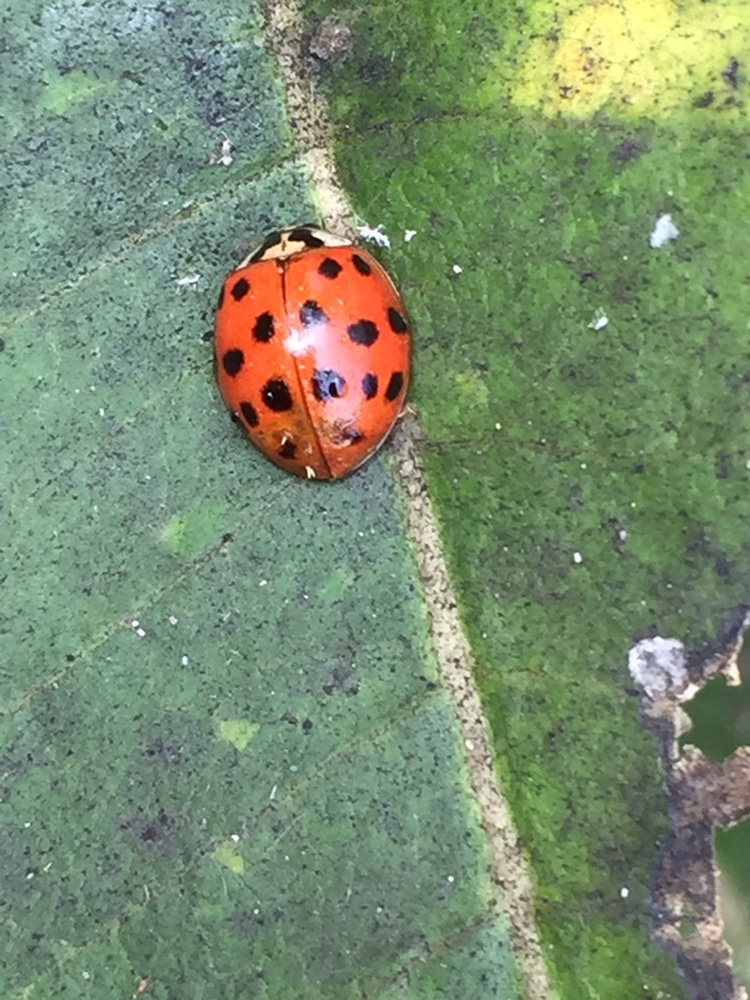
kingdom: Animalia
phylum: Arthropoda
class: Insecta
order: Coleoptera
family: Coccinellidae
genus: Harmonia
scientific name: Harmonia axyridis
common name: Harlequin ladybird
